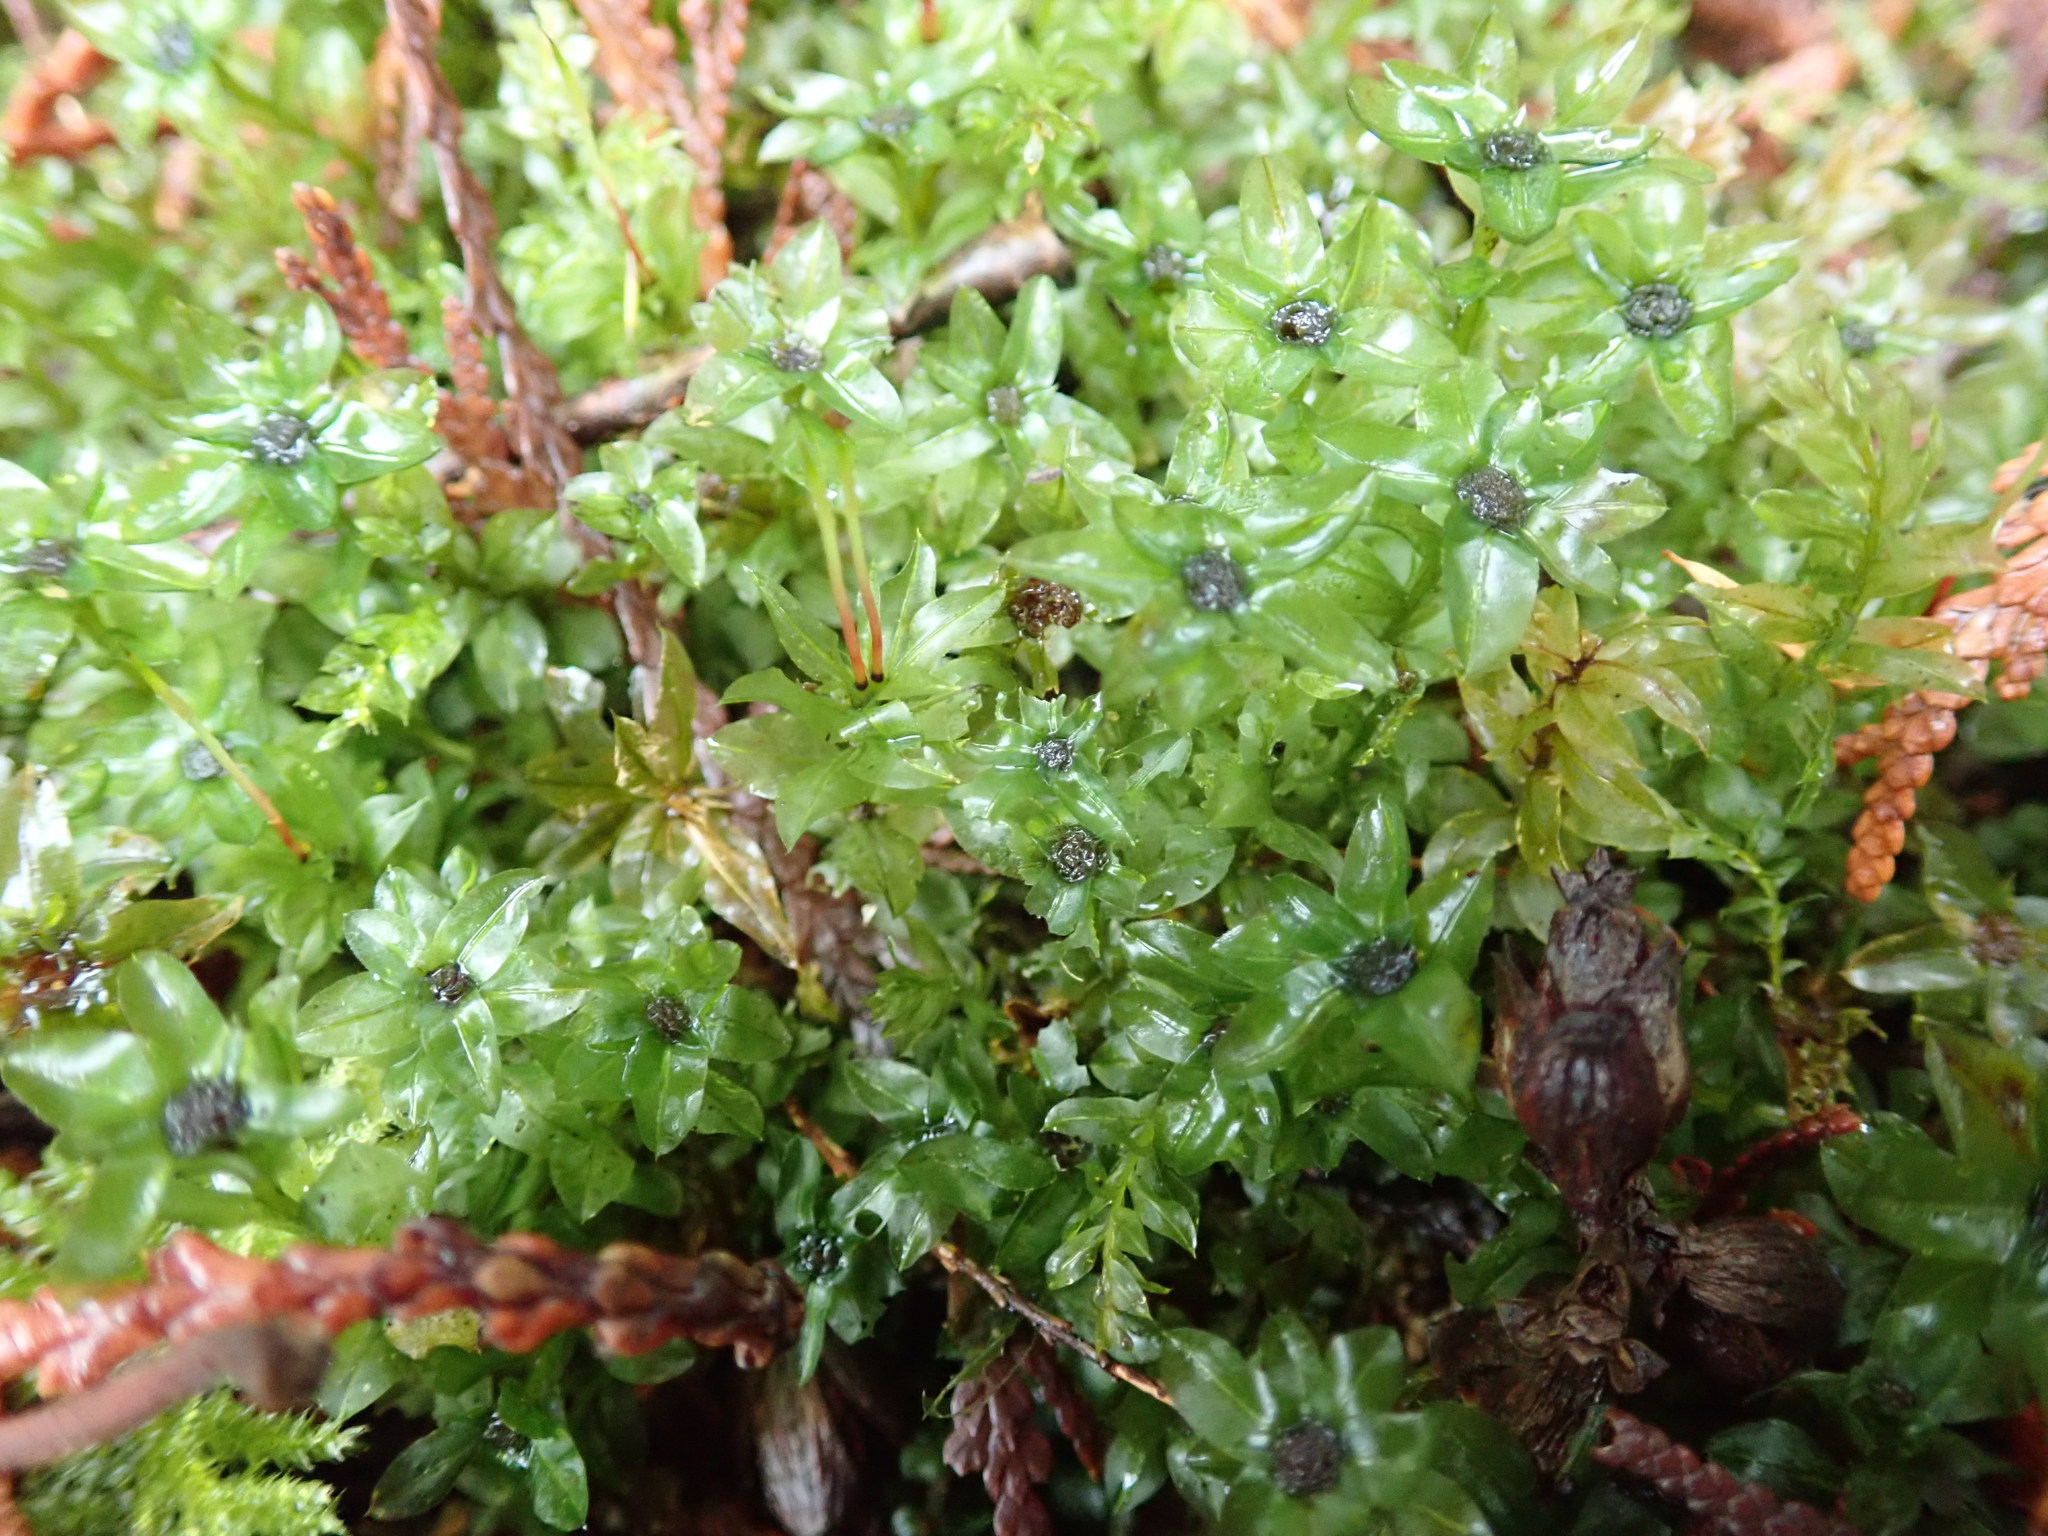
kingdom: Plantae
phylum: Bryophyta
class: Bryopsida
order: Bryales
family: Mniaceae
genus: Plagiomnium
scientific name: Plagiomnium insigne
